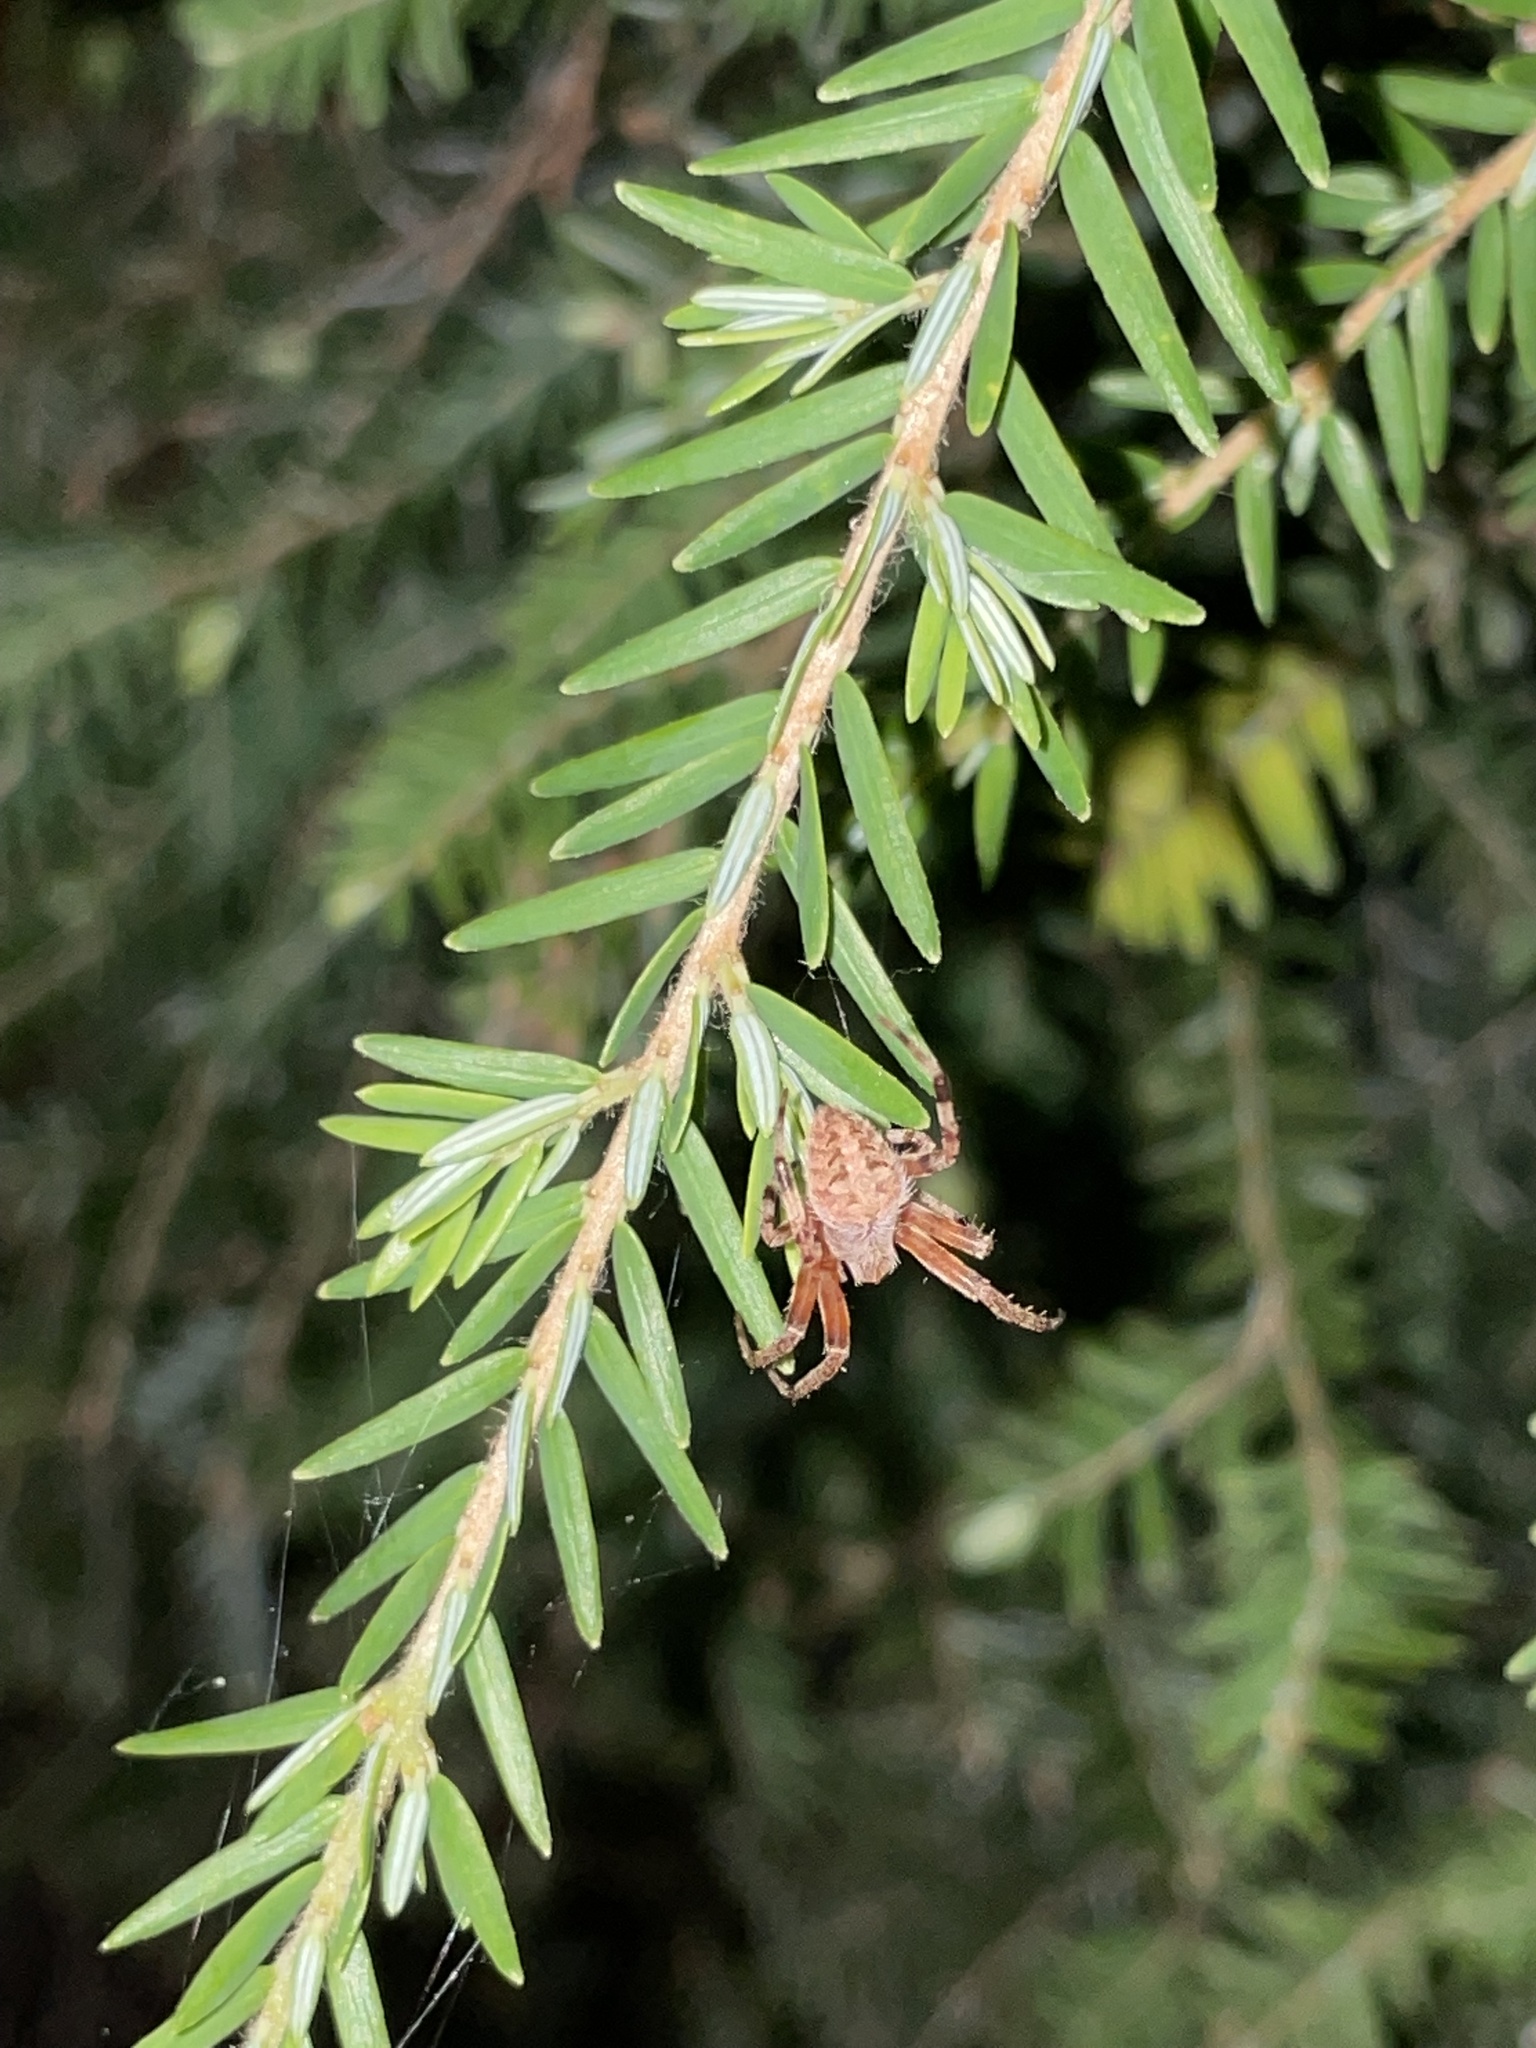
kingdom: Animalia
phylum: Arthropoda
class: Arachnida
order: Araneae
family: Araneidae
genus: Neoscona
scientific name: Neoscona crucifera
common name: Spotted orbweaver
